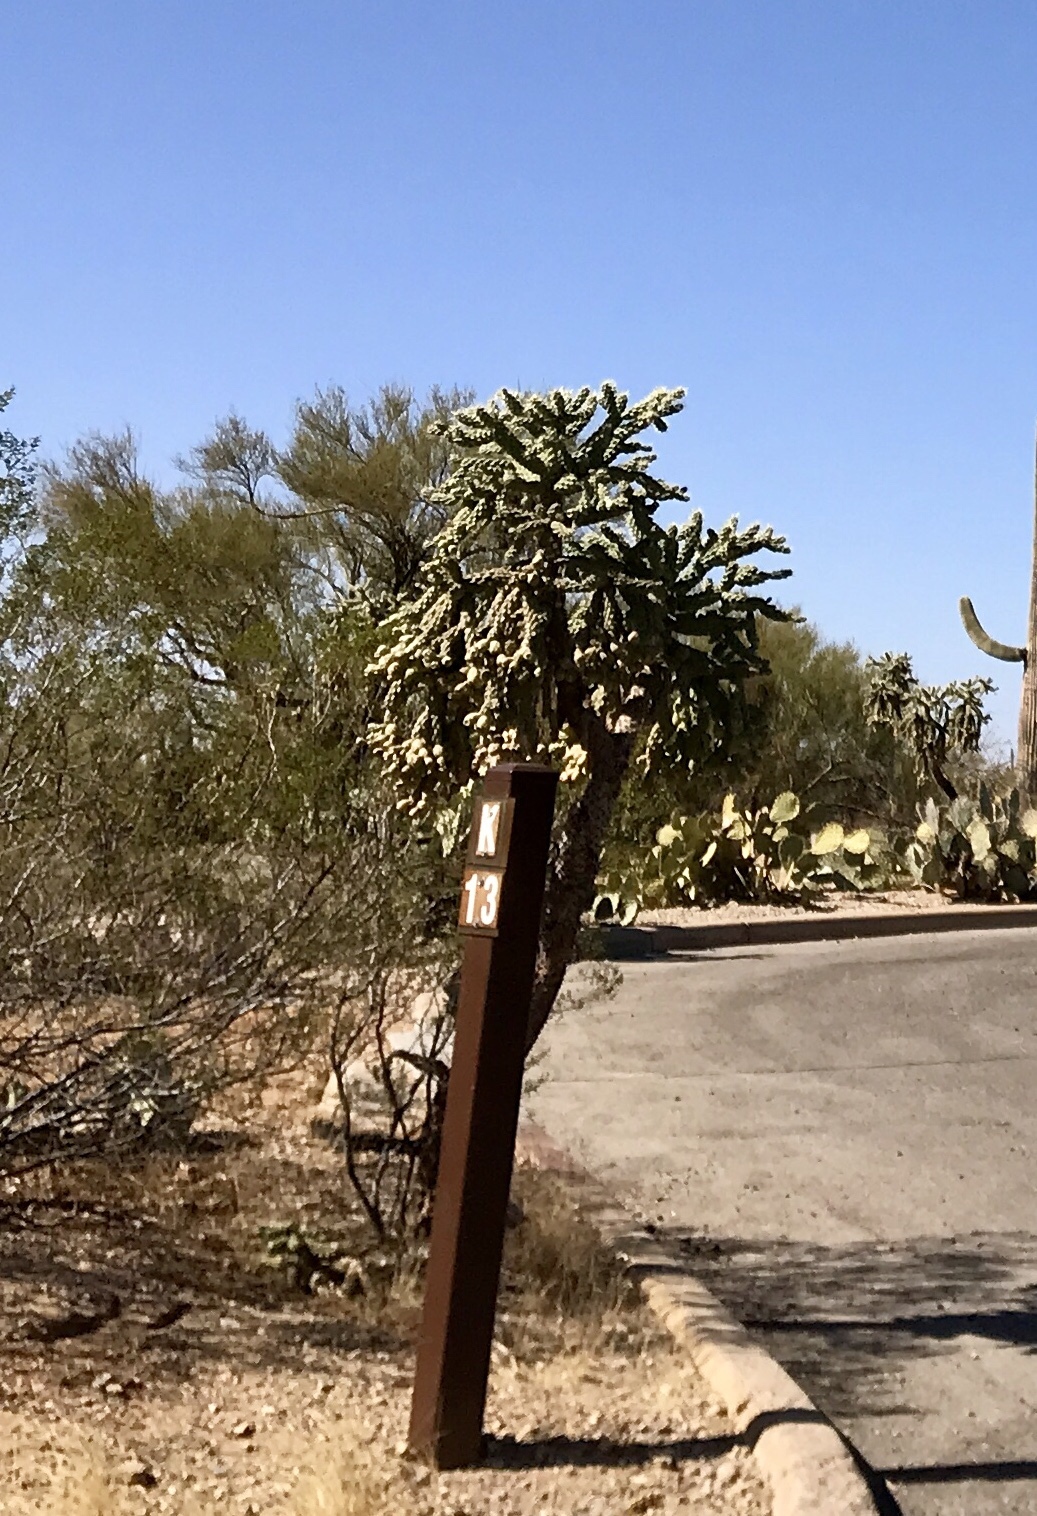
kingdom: Plantae
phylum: Tracheophyta
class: Magnoliopsida
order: Caryophyllales
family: Cactaceae
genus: Cylindropuntia
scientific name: Cylindropuntia fulgida
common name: Jumping cholla
